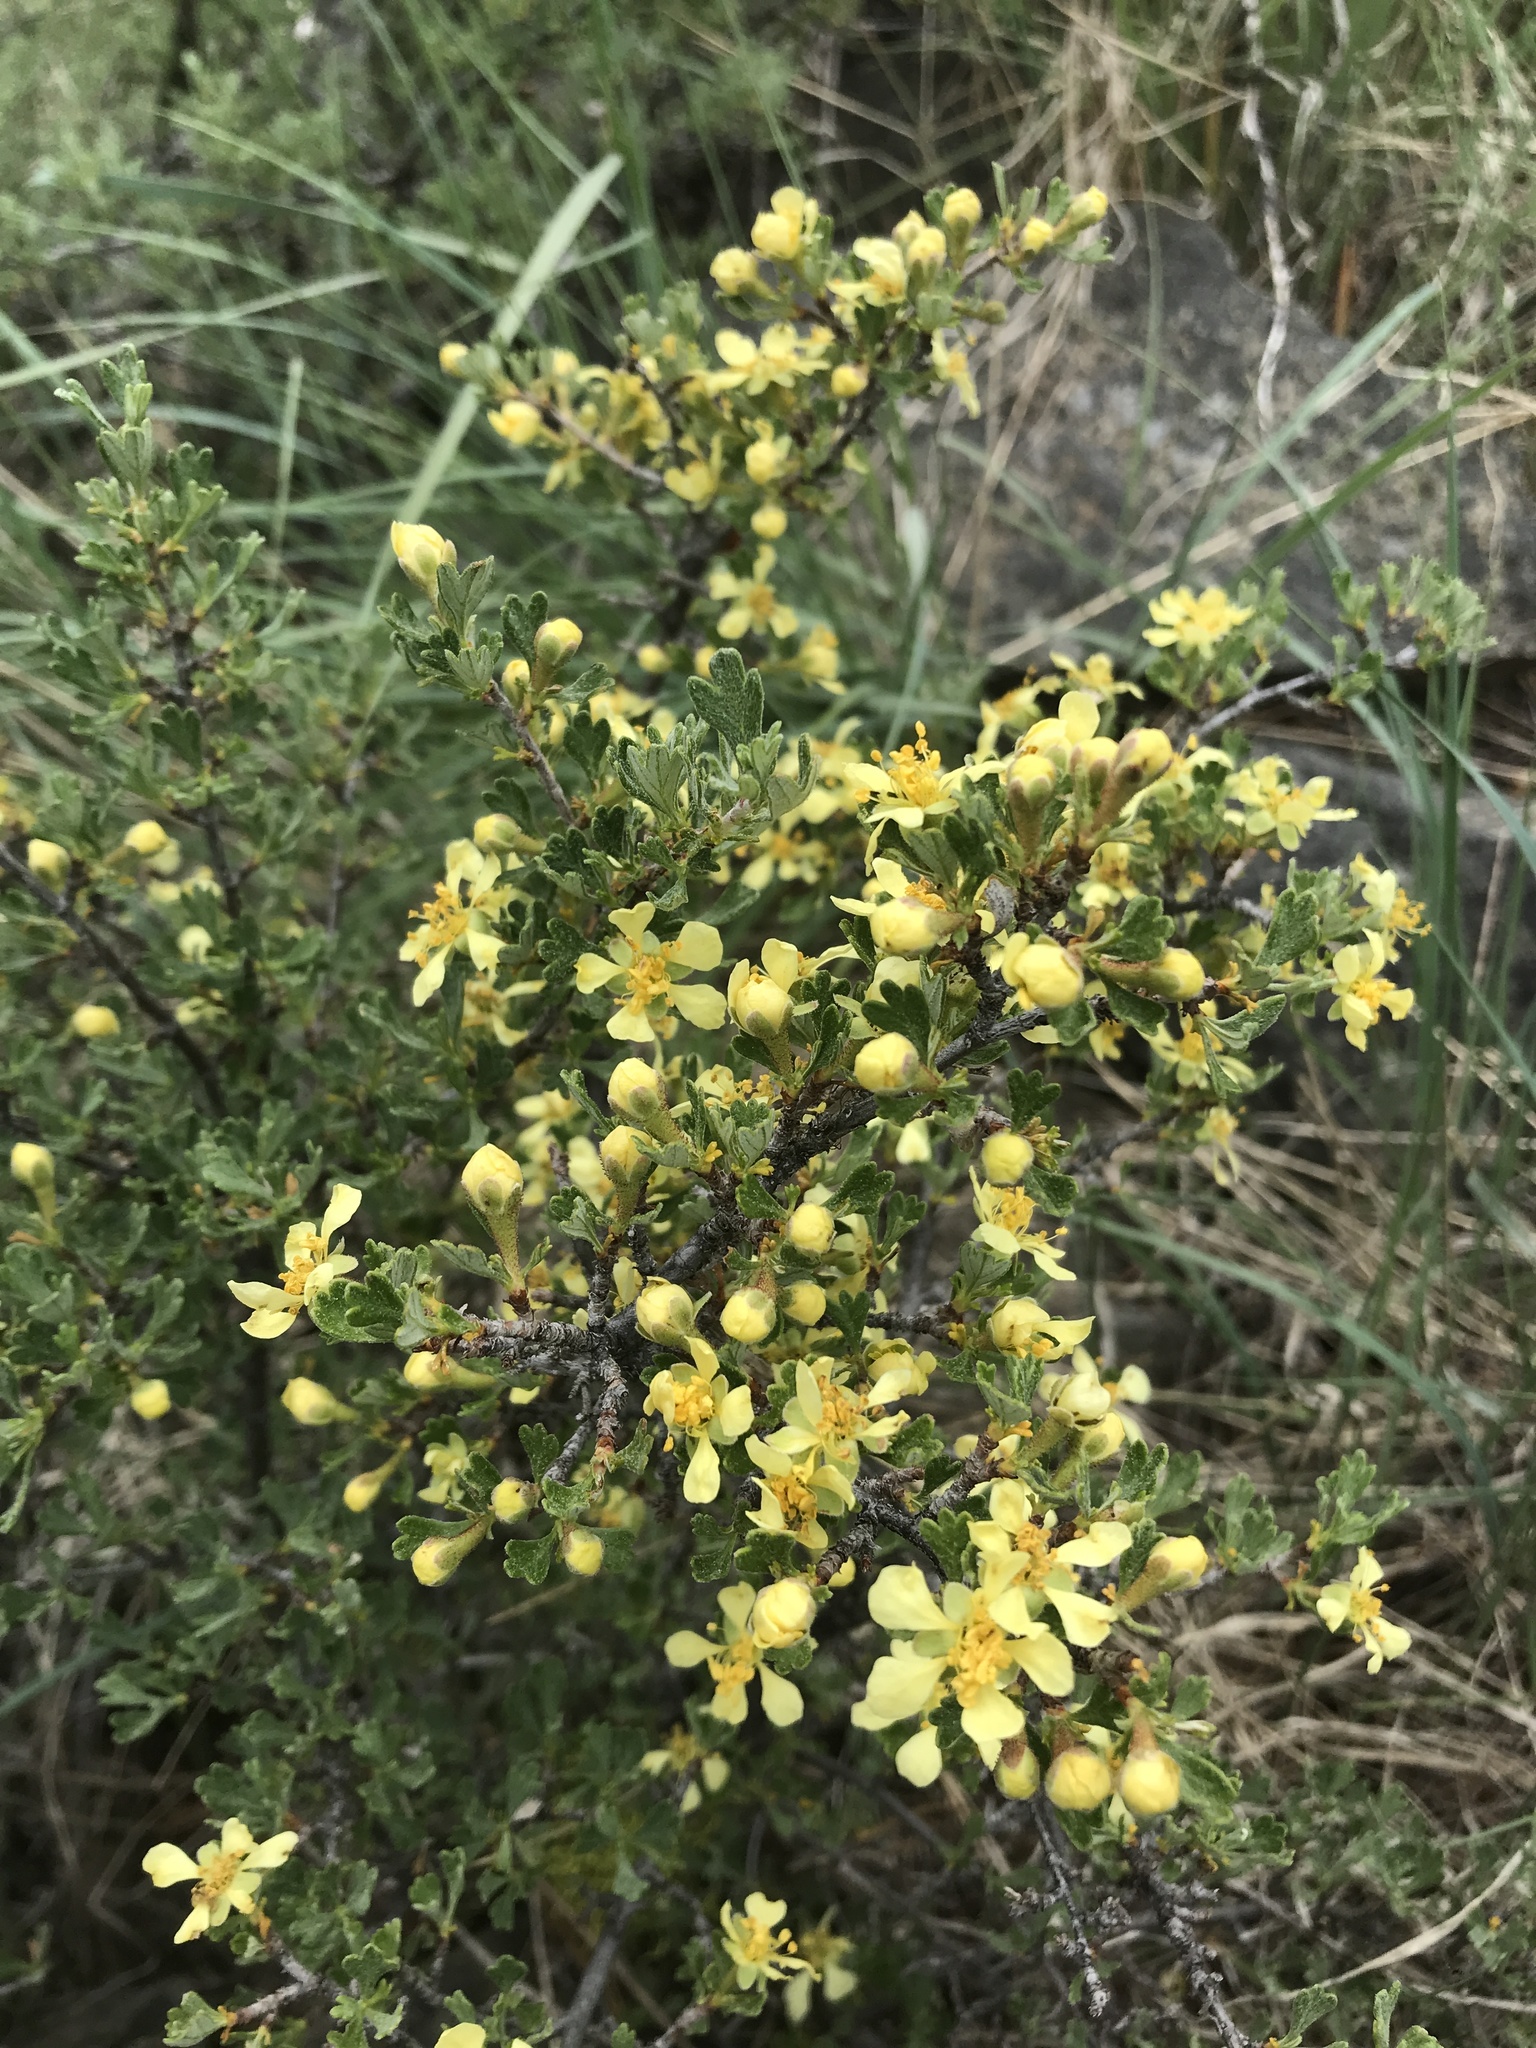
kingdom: Plantae
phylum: Tracheophyta
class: Magnoliopsida
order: Rosales
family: Rosaceae
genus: Purshia
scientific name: Purshia tridentata
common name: Antelope bitterbrush
